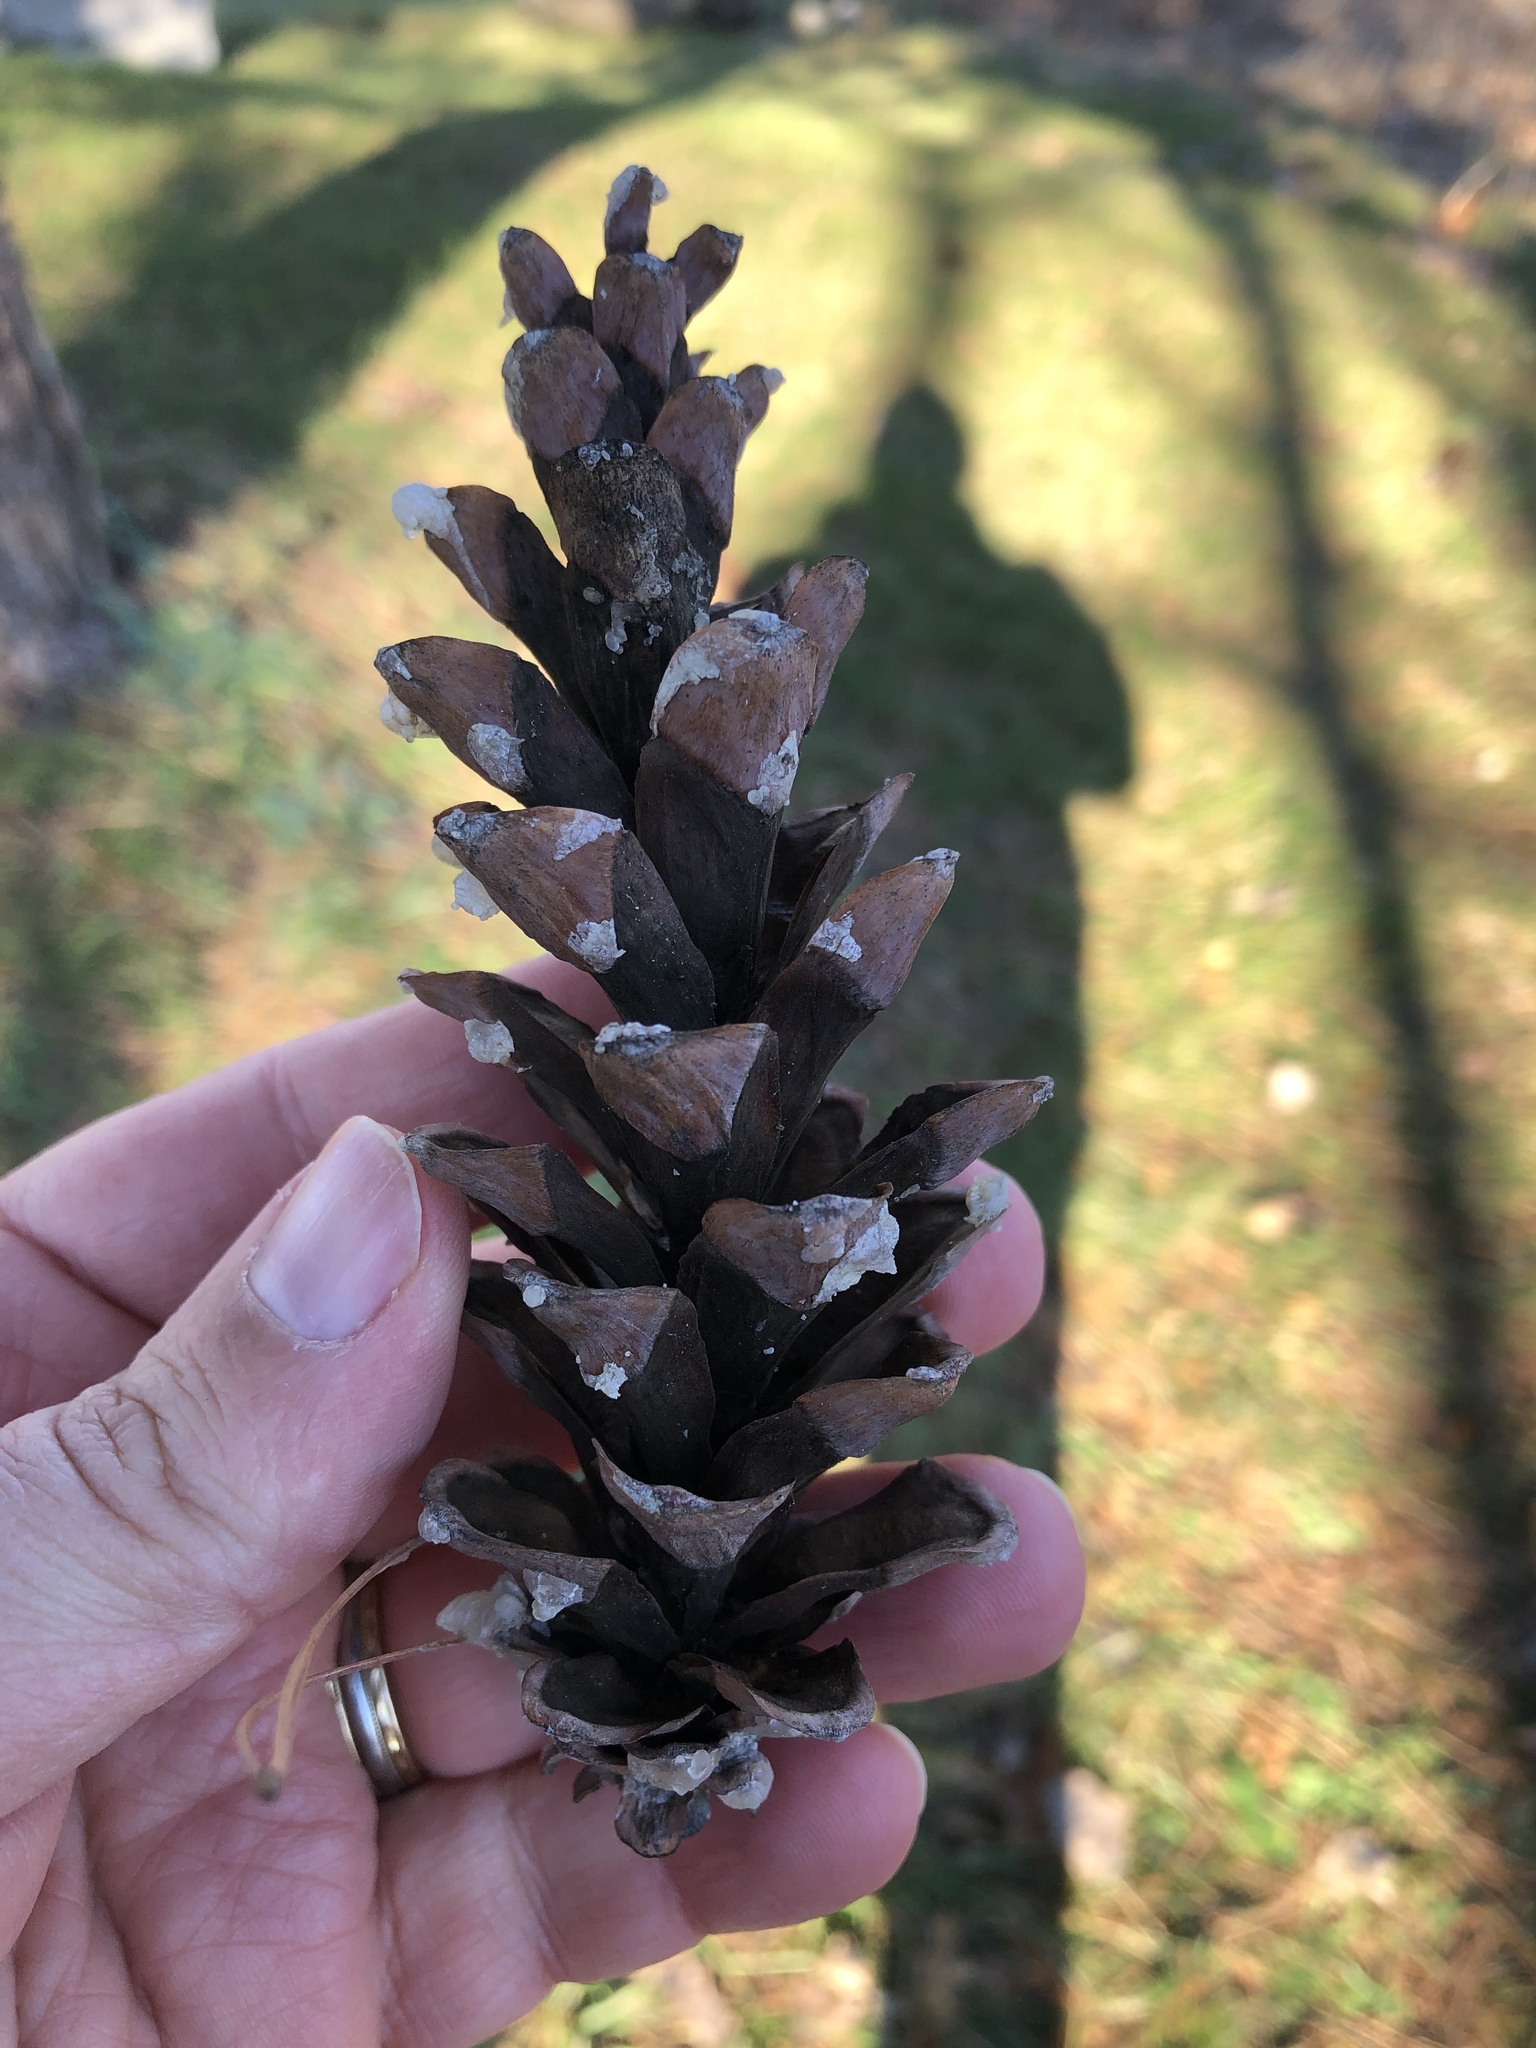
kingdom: Plantae
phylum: Tracheophyta
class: Pinopsida
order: Pinales
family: Pinaceae
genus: Pinus
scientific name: Pinus strobus
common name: Weymouth pine
